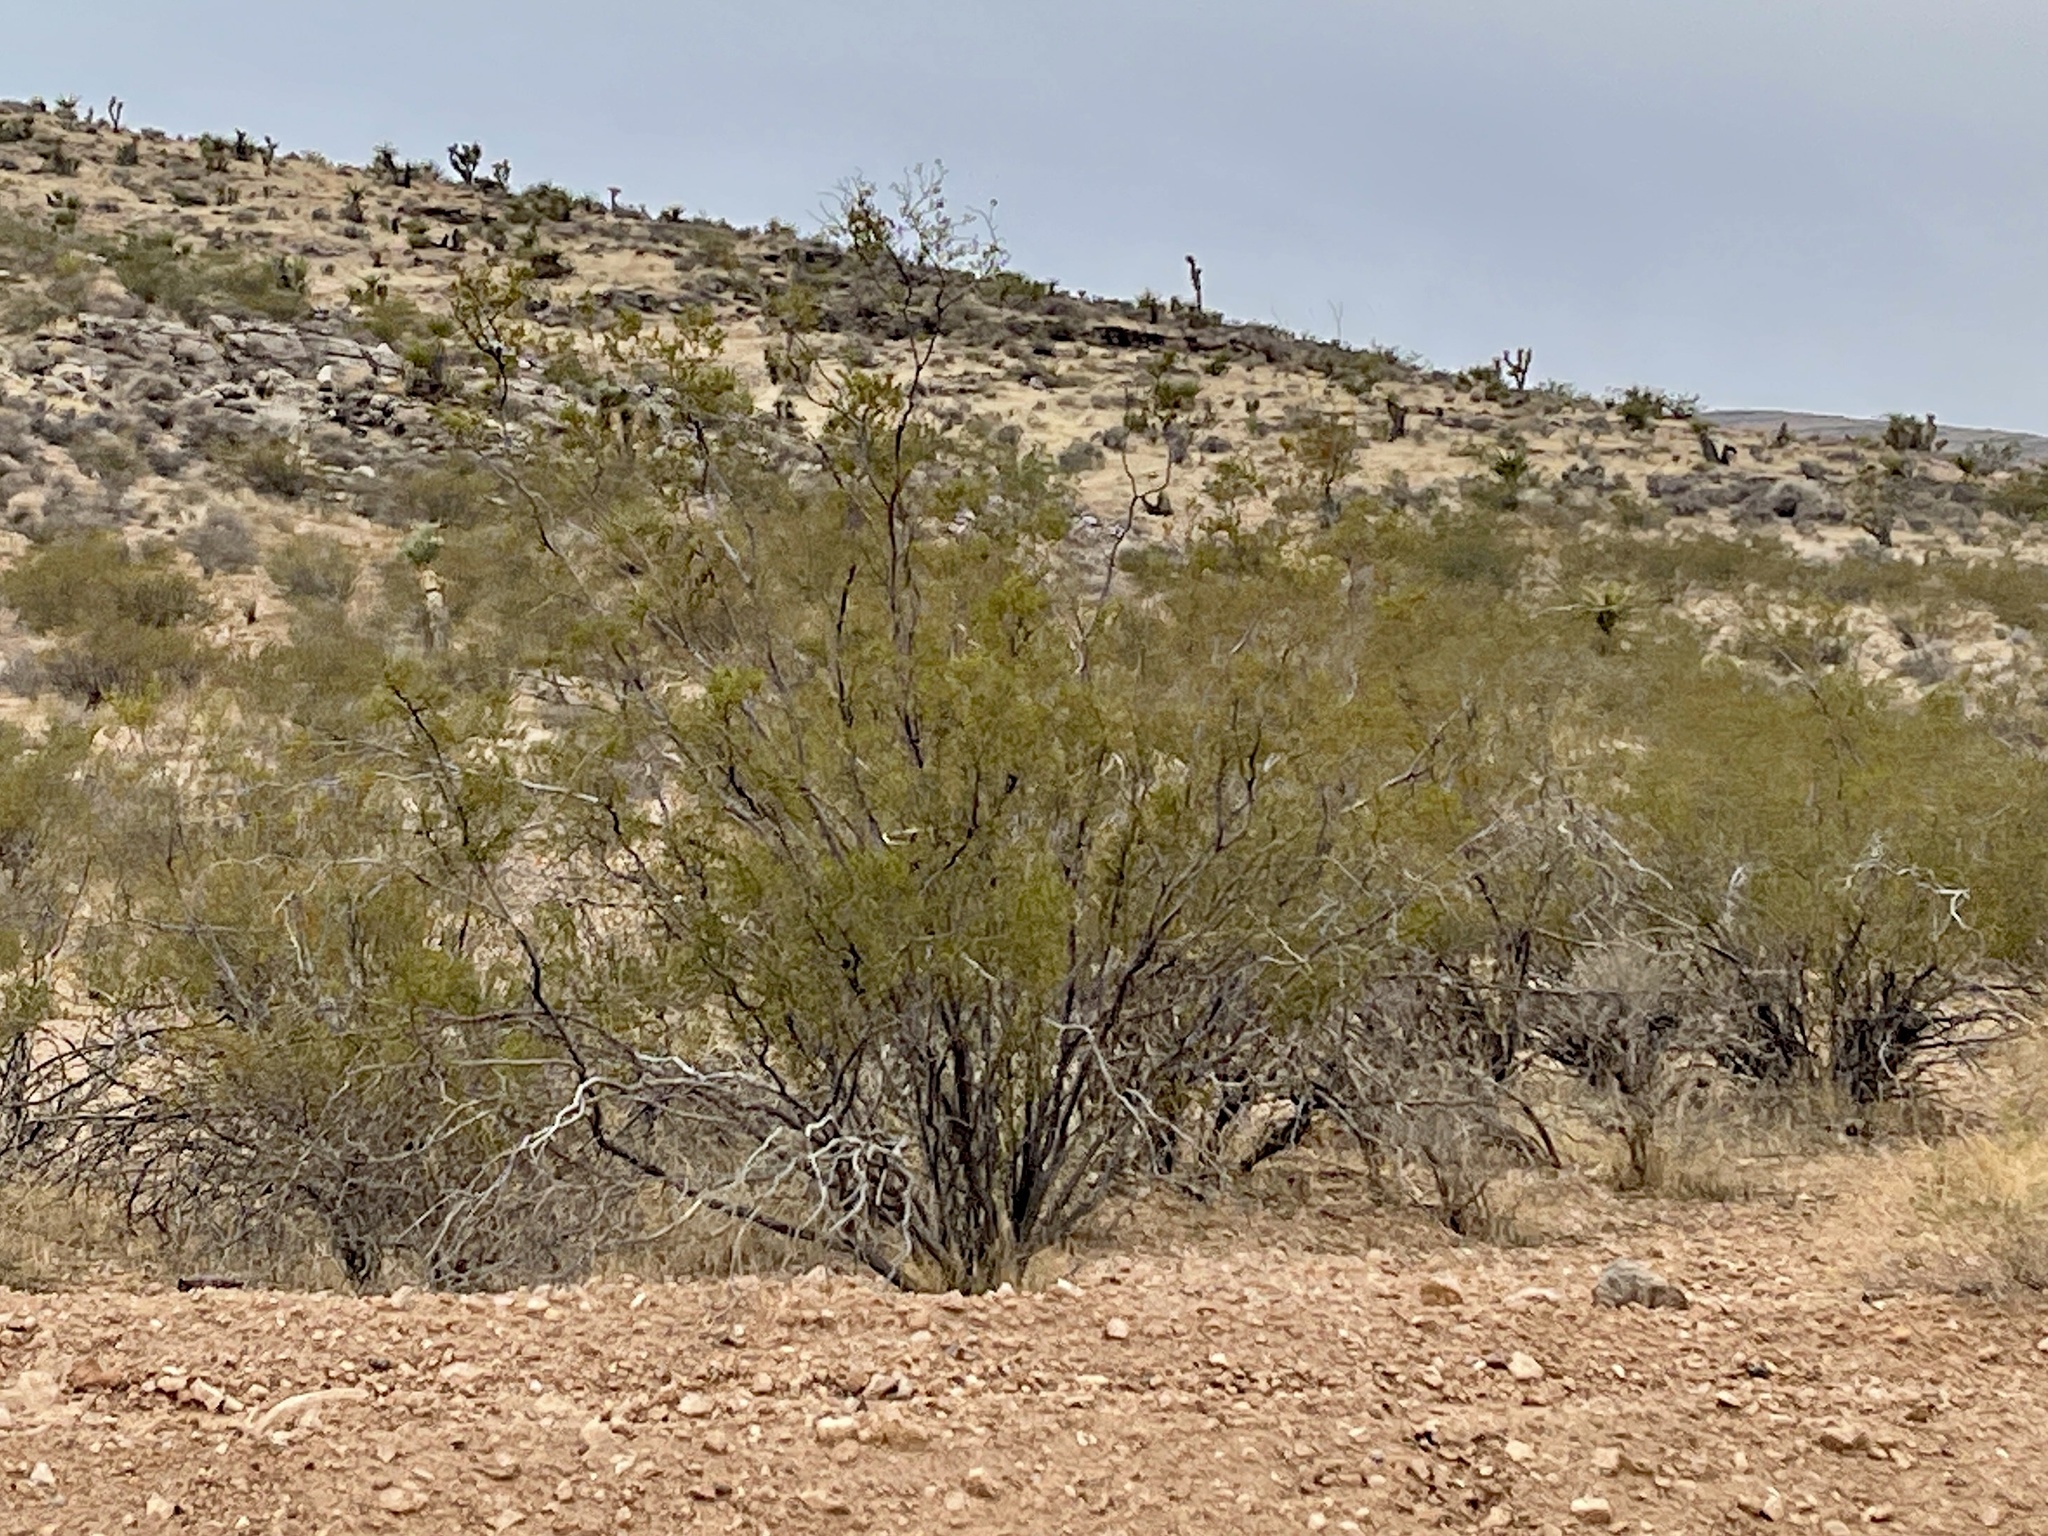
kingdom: Plantae
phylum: Tracheophyta
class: Magnoliopsida
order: Zygophyllales
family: Zygophyllaceae
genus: Larrea
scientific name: Larrea tridentata
